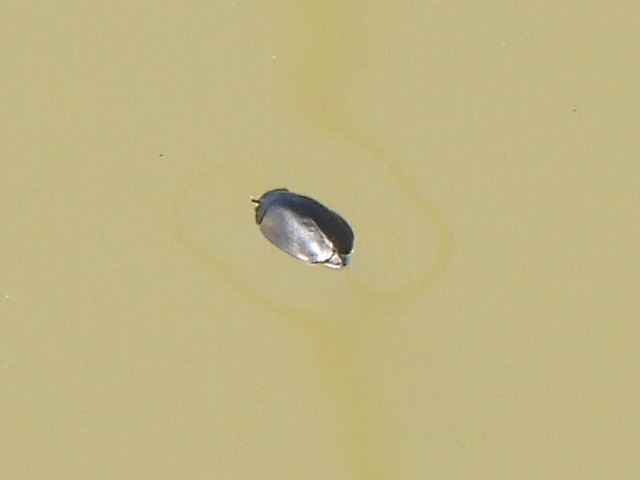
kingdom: Animalia
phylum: Arthropoda
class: Insecta
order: Coleoptera
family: Gyrinidae
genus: Dineutus
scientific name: Dineutus
